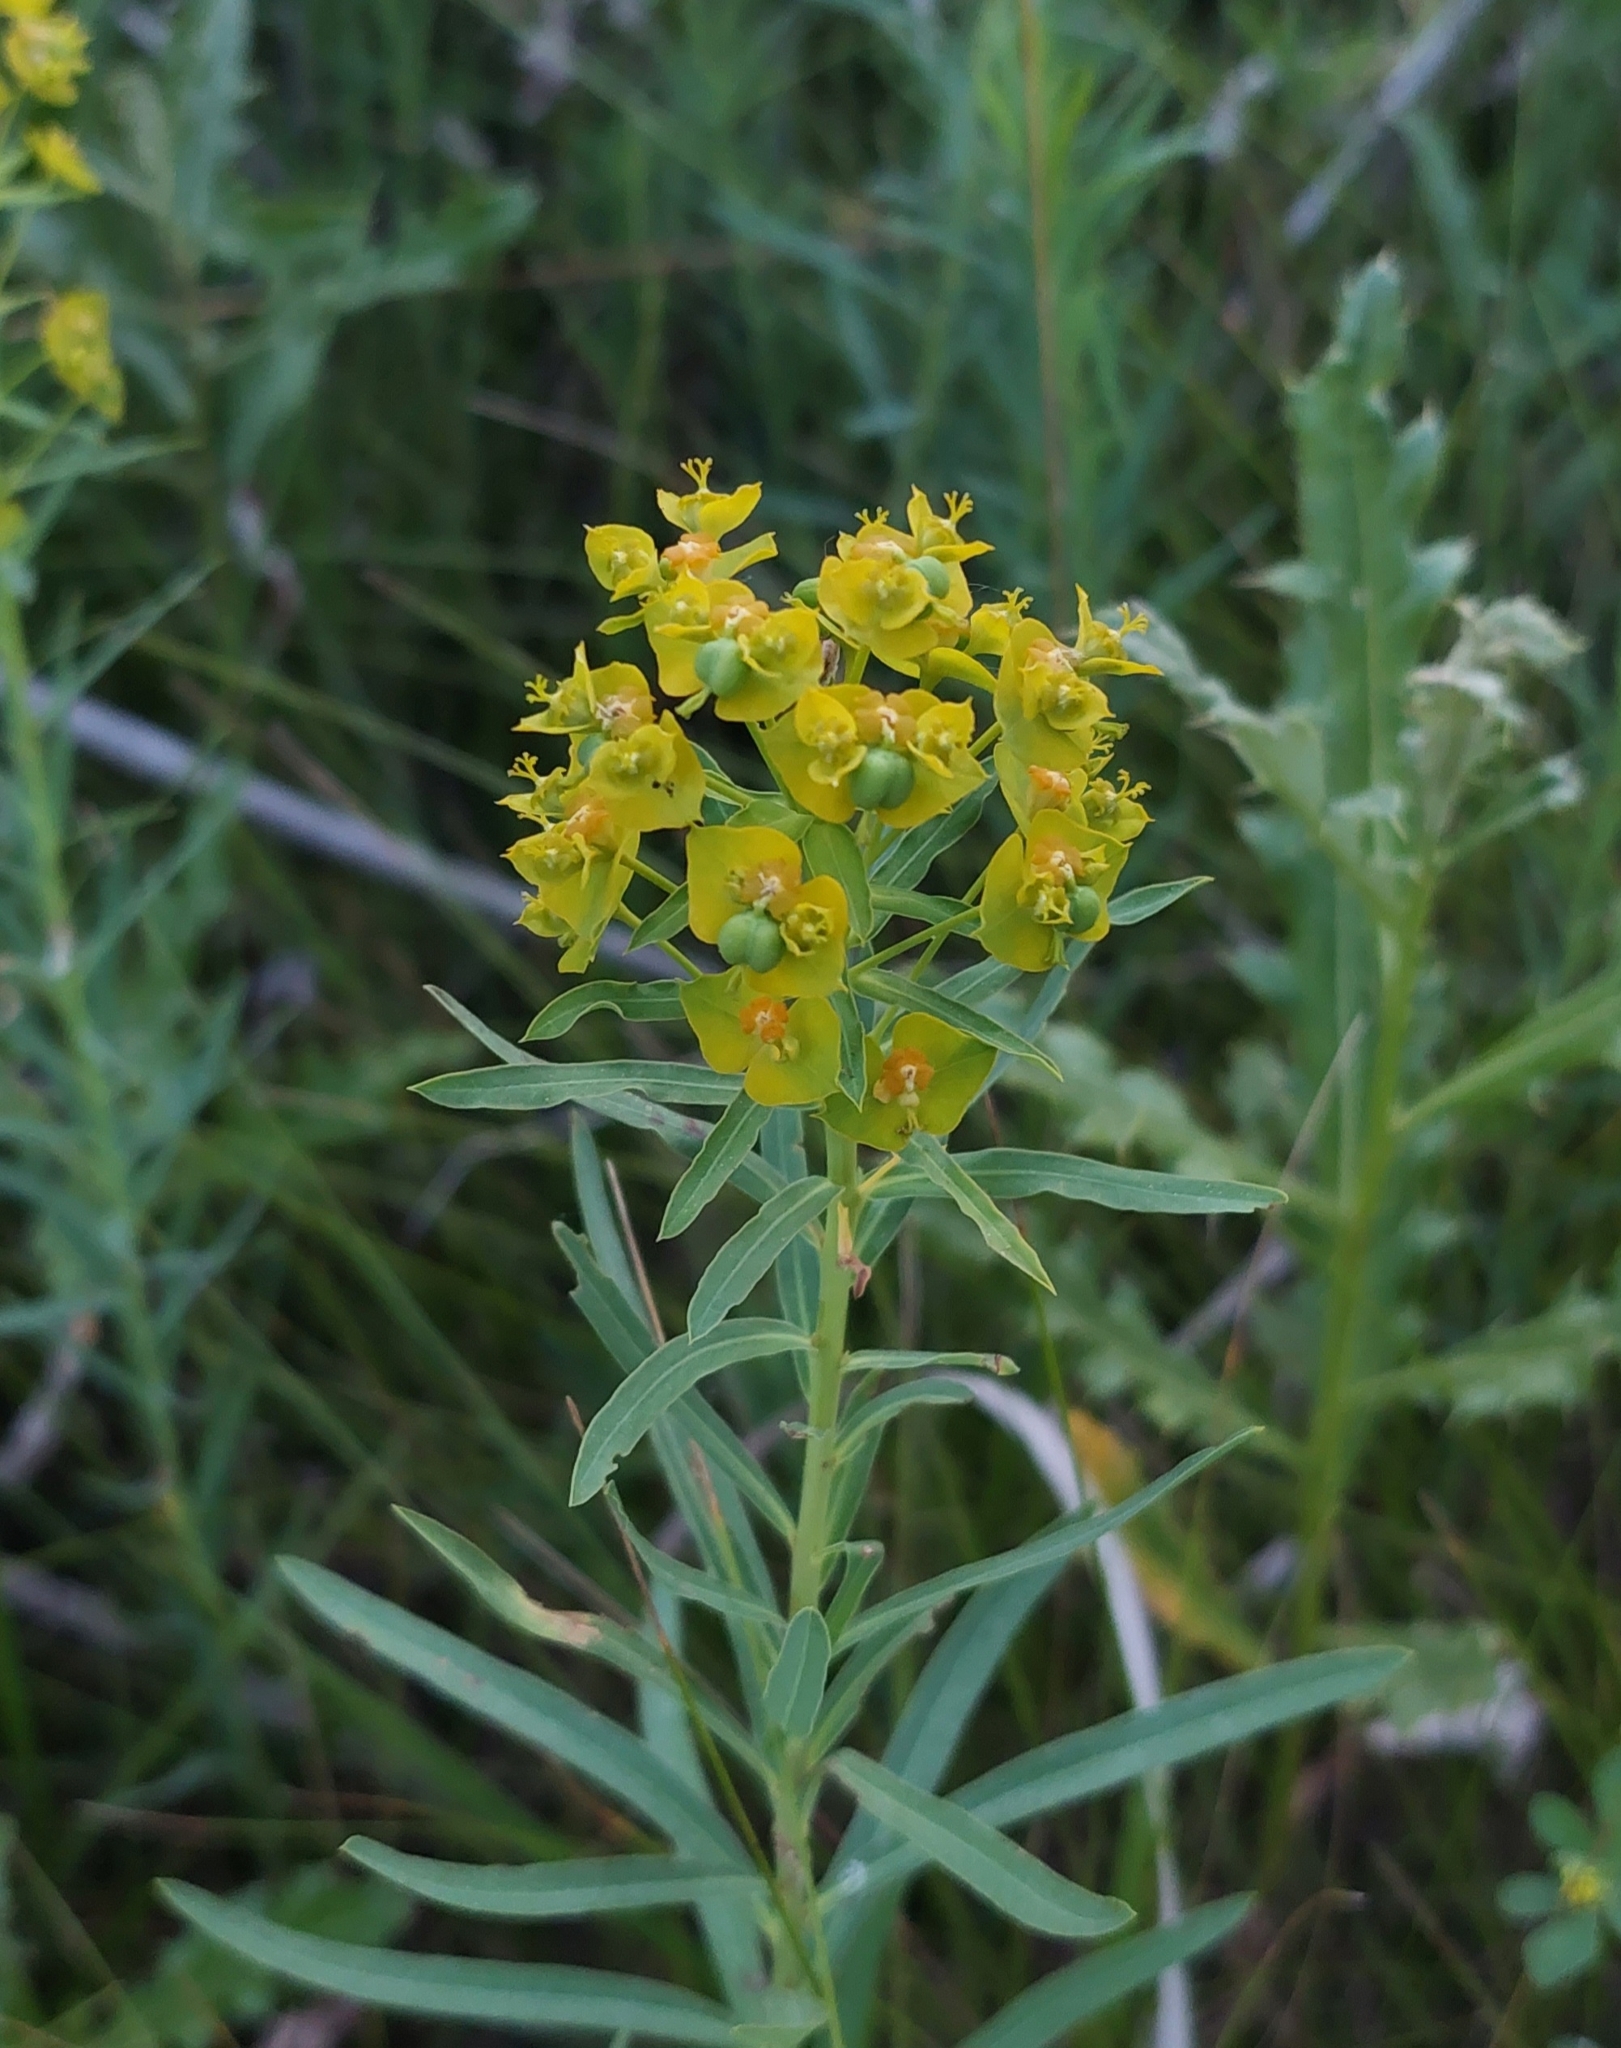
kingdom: Plantae
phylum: Tracheophyta
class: Magnoliopsida
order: Malpighiales
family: Euphorbiaceae
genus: Euphorbia
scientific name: Euphorbia virgata
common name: Leafy spurge
